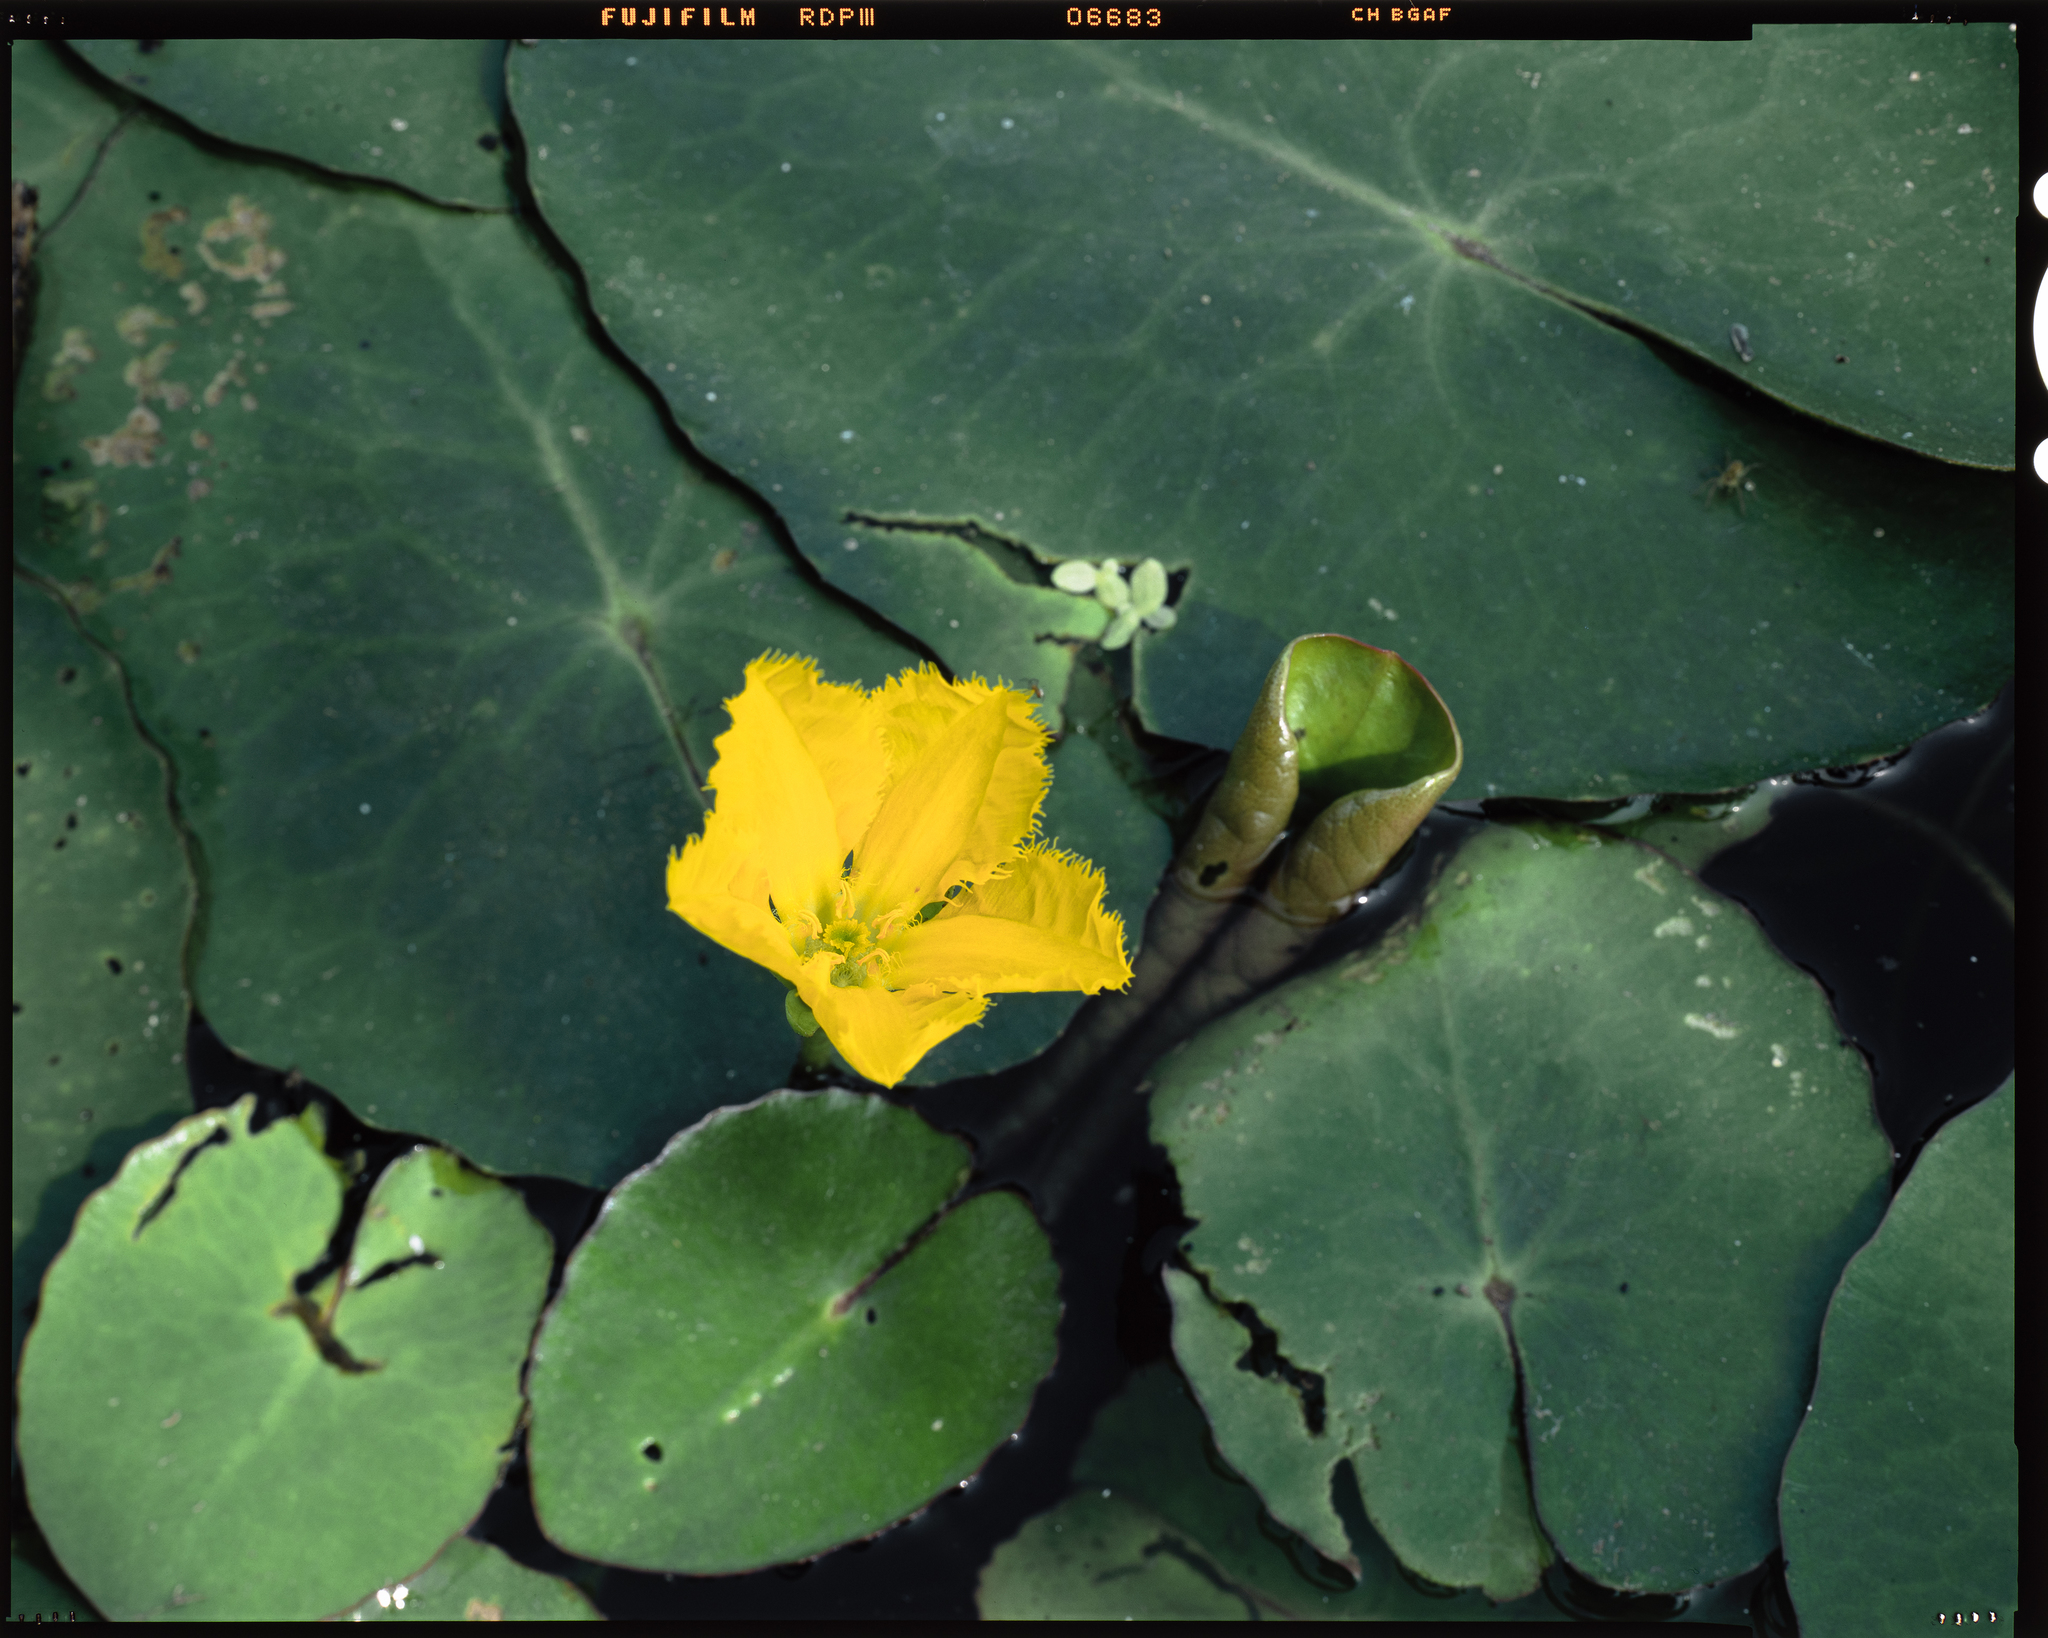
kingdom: Plantae
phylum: Tracheophyta
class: Magnoliopsida
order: Asterales
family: Menyanthaceae
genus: Nymphoides
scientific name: Nymphoides peltata
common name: Fringed water-lily
